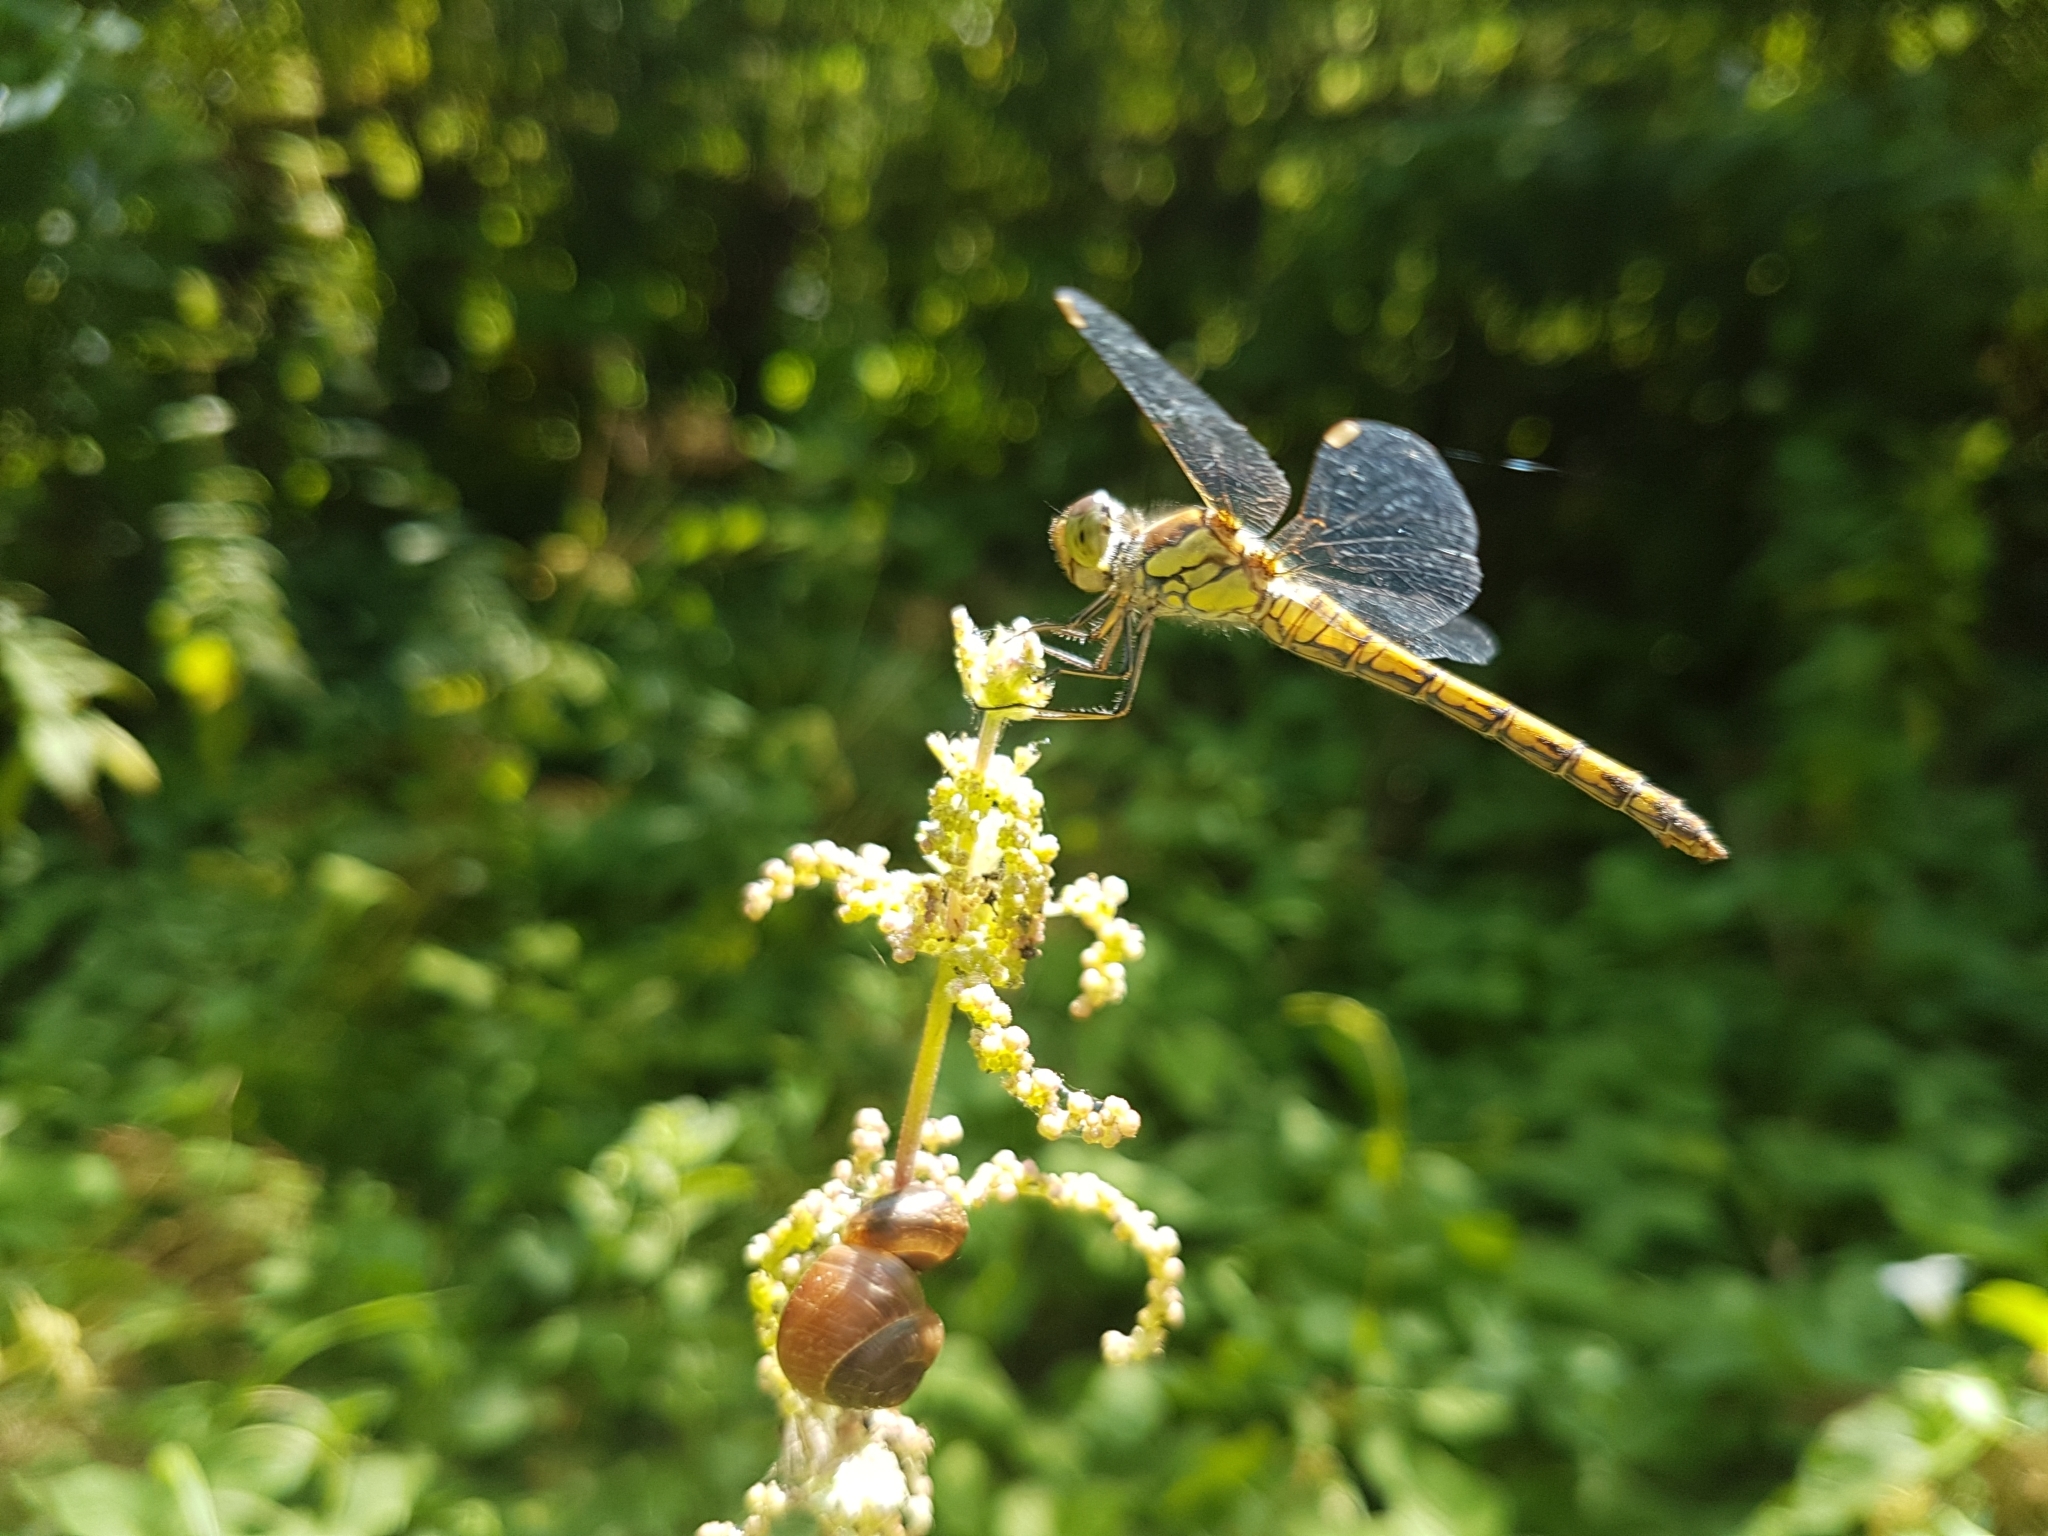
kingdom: Animalia
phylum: Arthropoda
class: Insecta
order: Odonata
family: Libellulidae
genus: Sympetrum
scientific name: Sympetrum striolatum
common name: Common darter
